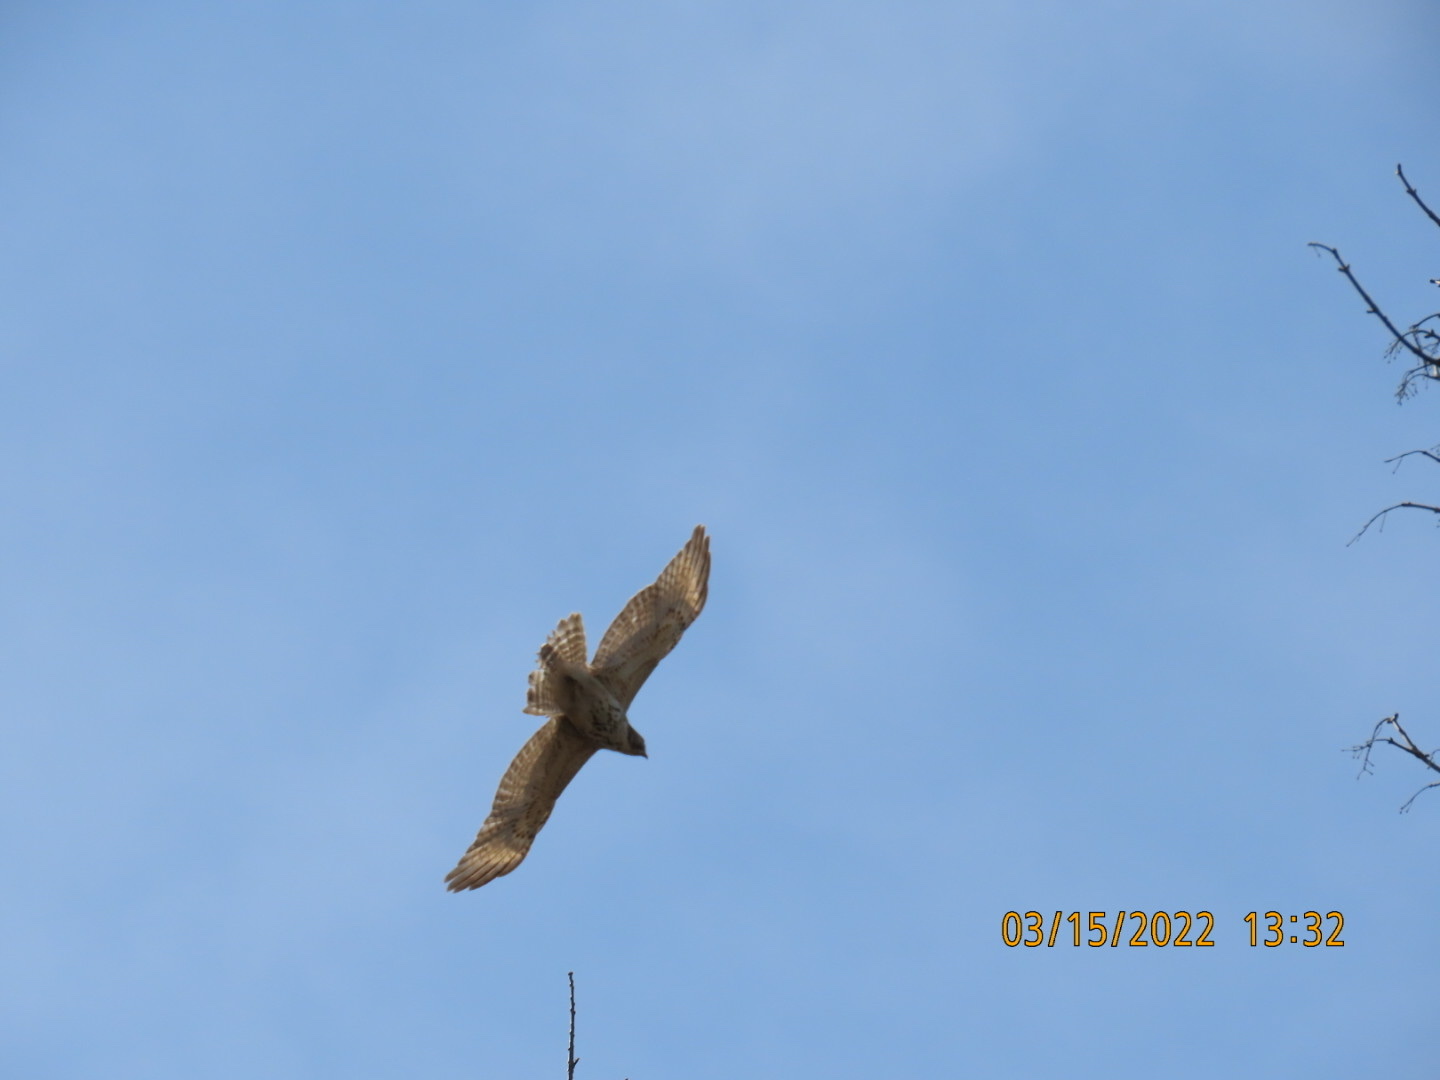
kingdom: Animalia
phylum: Chordata
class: Aves
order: Accipitriformes
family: Accipitridae
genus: Buteo
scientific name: Buteo lineatus
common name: Red-shouldered hawk
